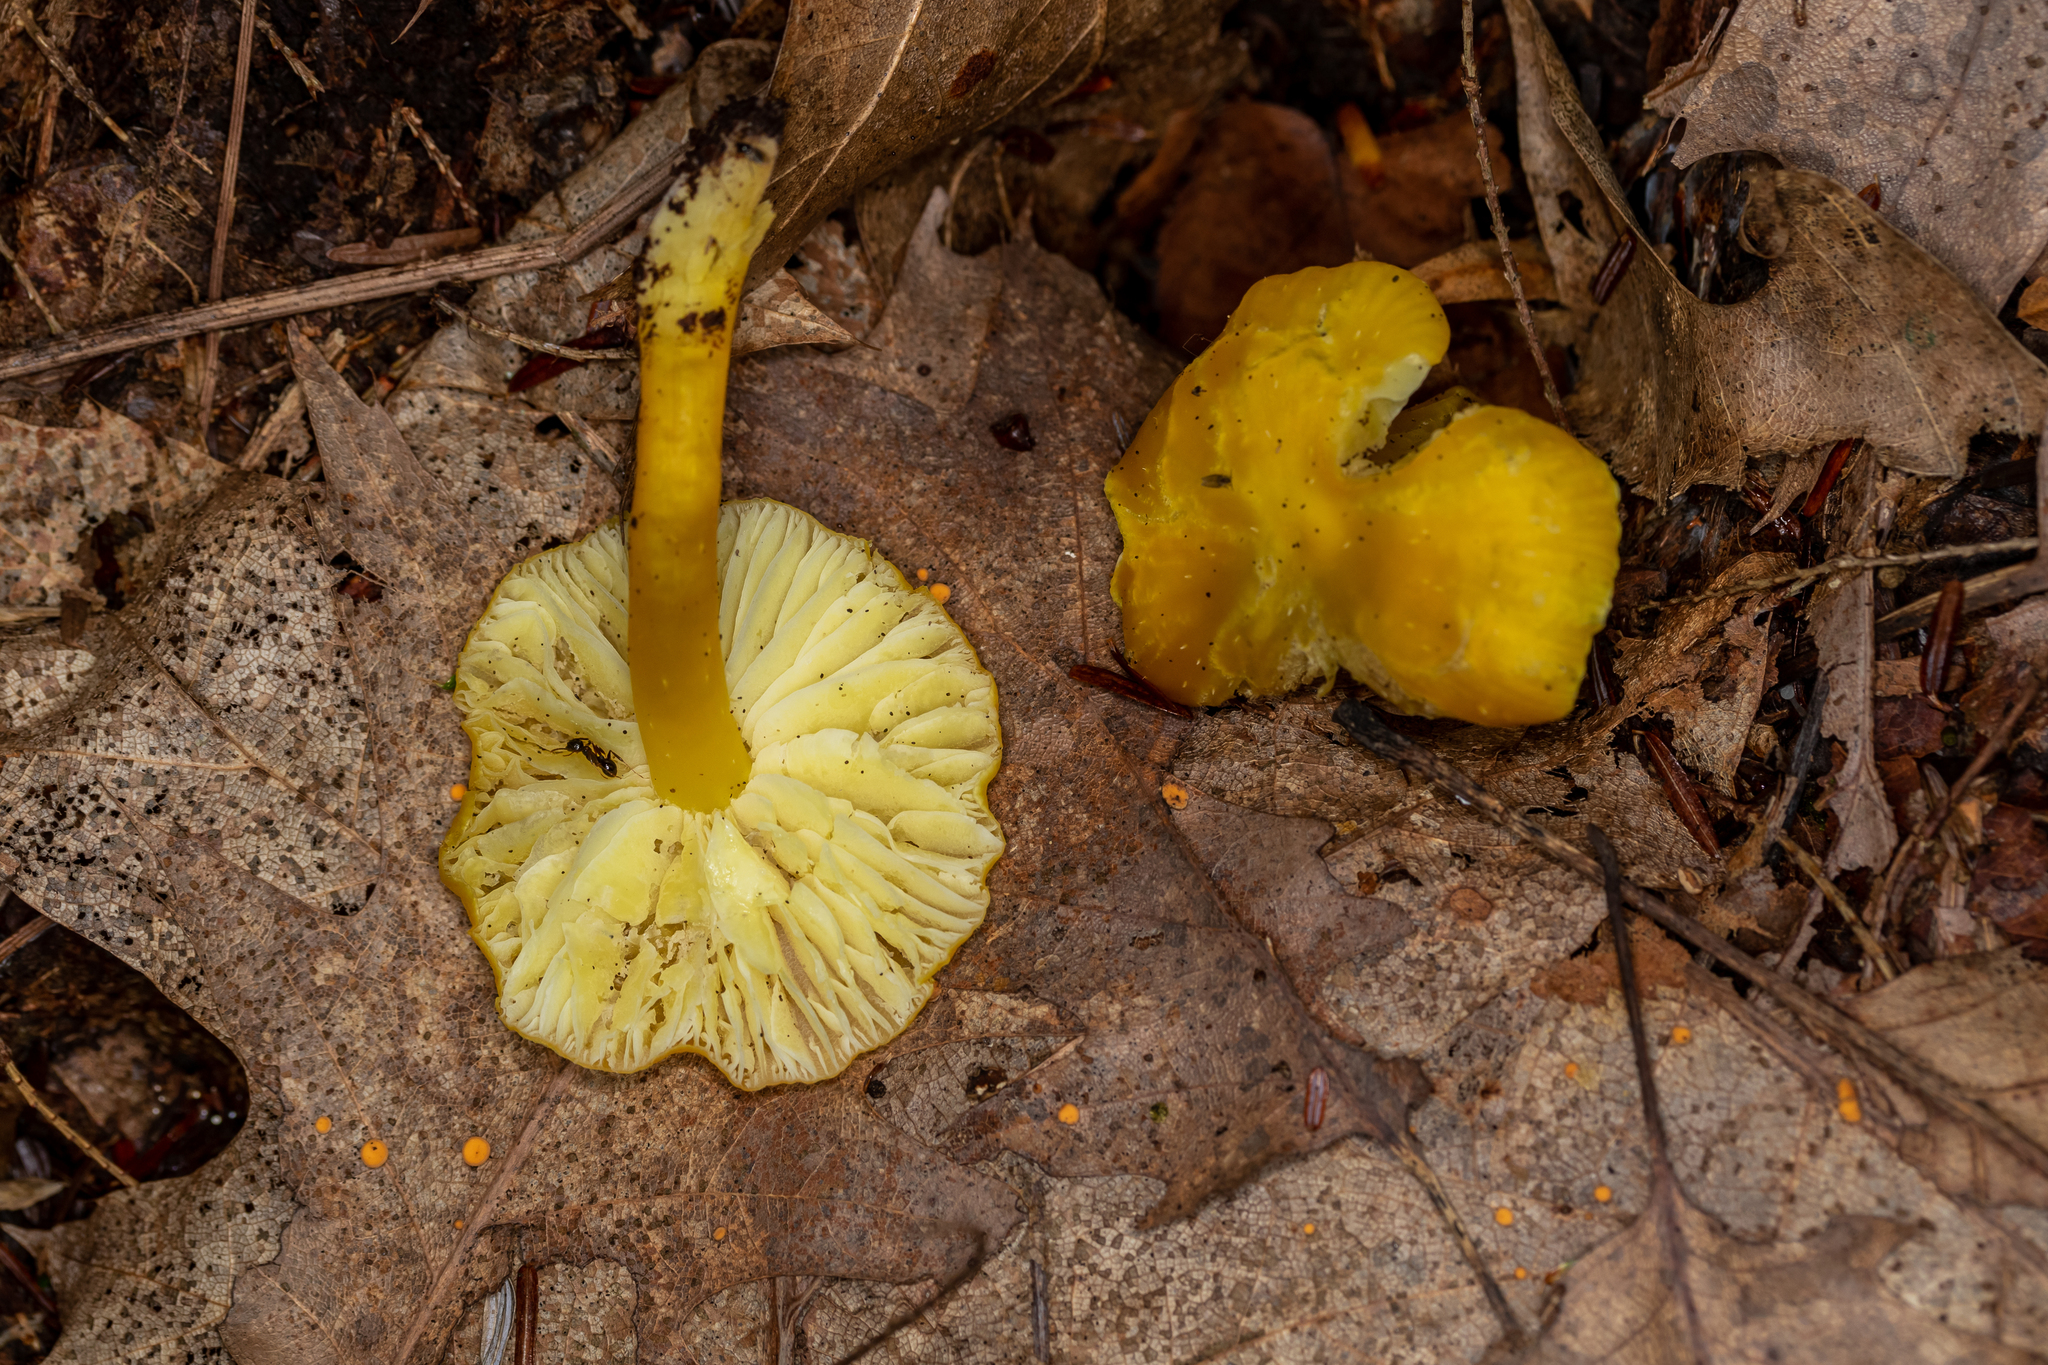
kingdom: Fungi
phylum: Basidiomycota
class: Agaricomycetes
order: Agaricales
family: Hygrophoraceae
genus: Hygrocybe
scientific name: Hygrocybe flavescens
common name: Golden waxy cap
